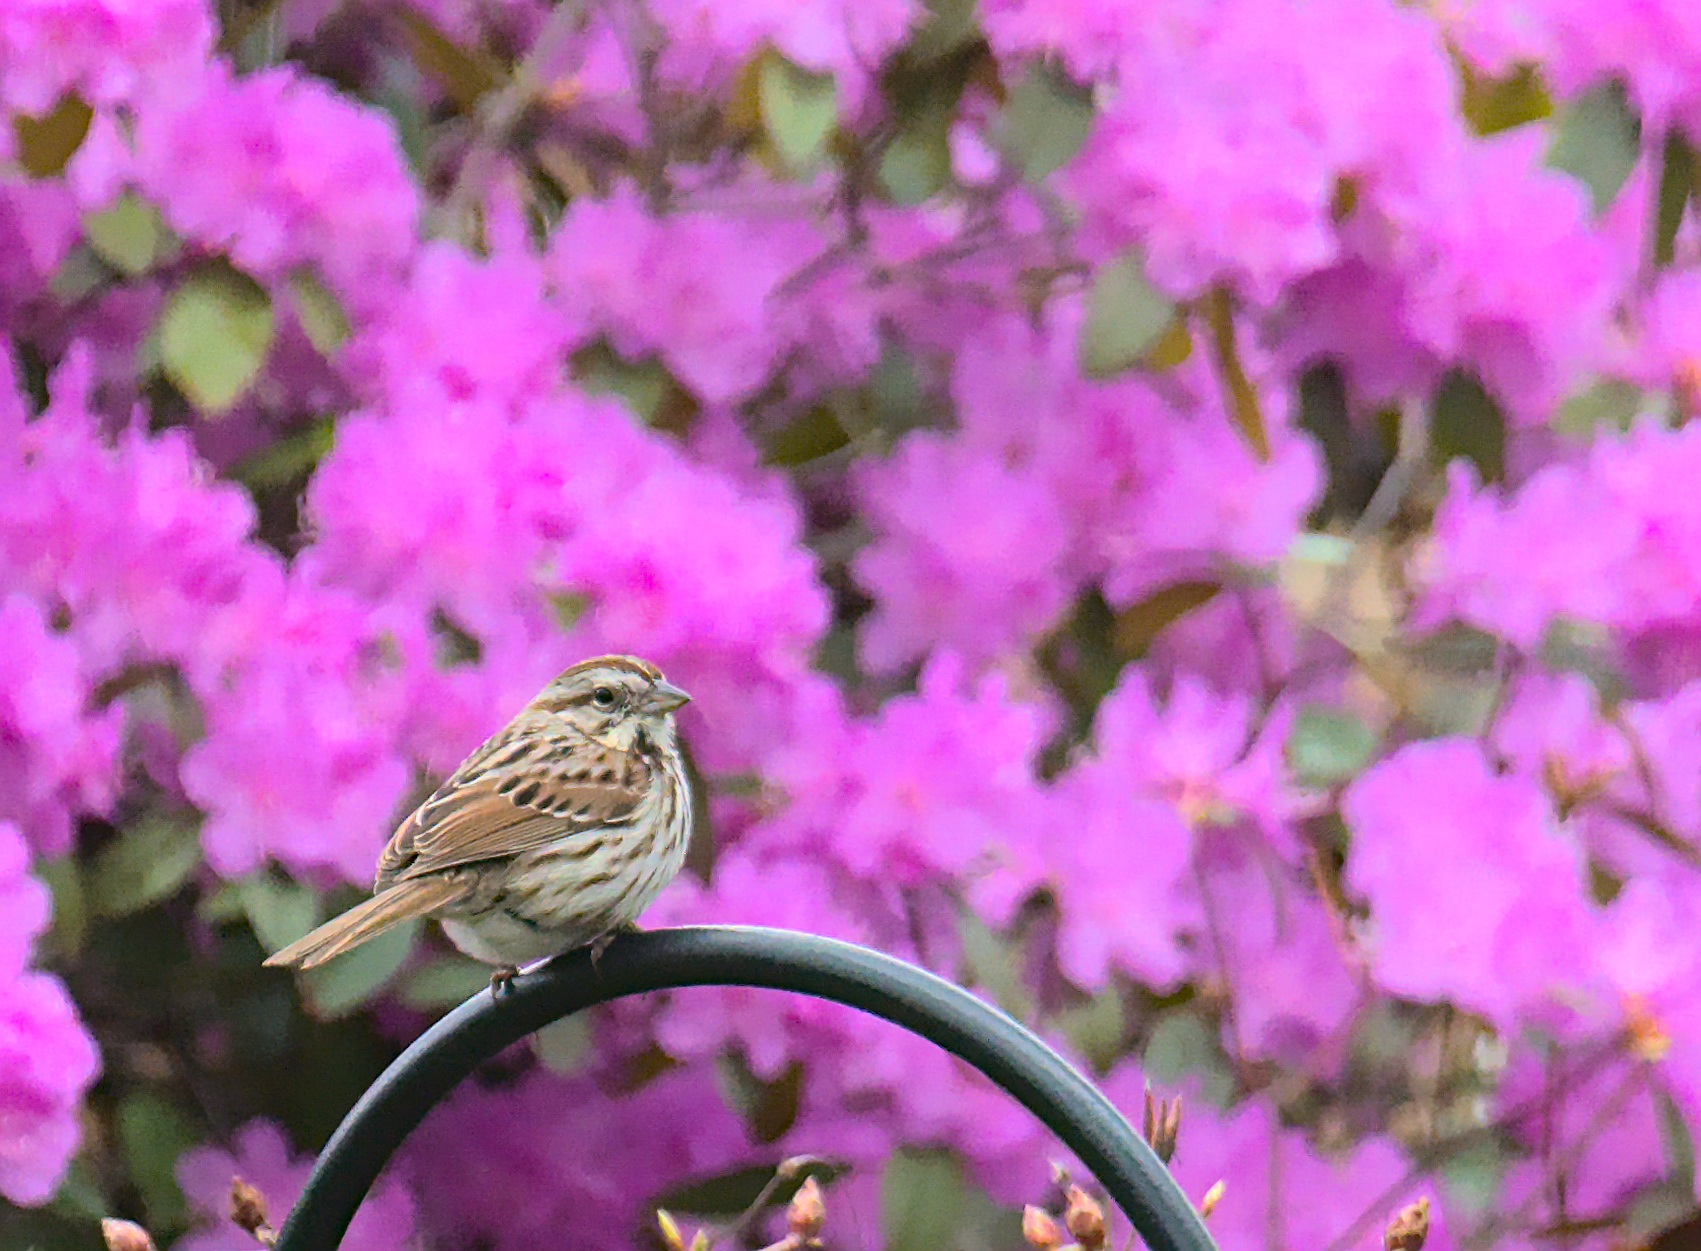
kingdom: Animalia
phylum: Chordata
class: Aves
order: Passeriformes
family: Passerellidae
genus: Melospiza
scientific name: Melospiza melodia
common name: Song sparrow
